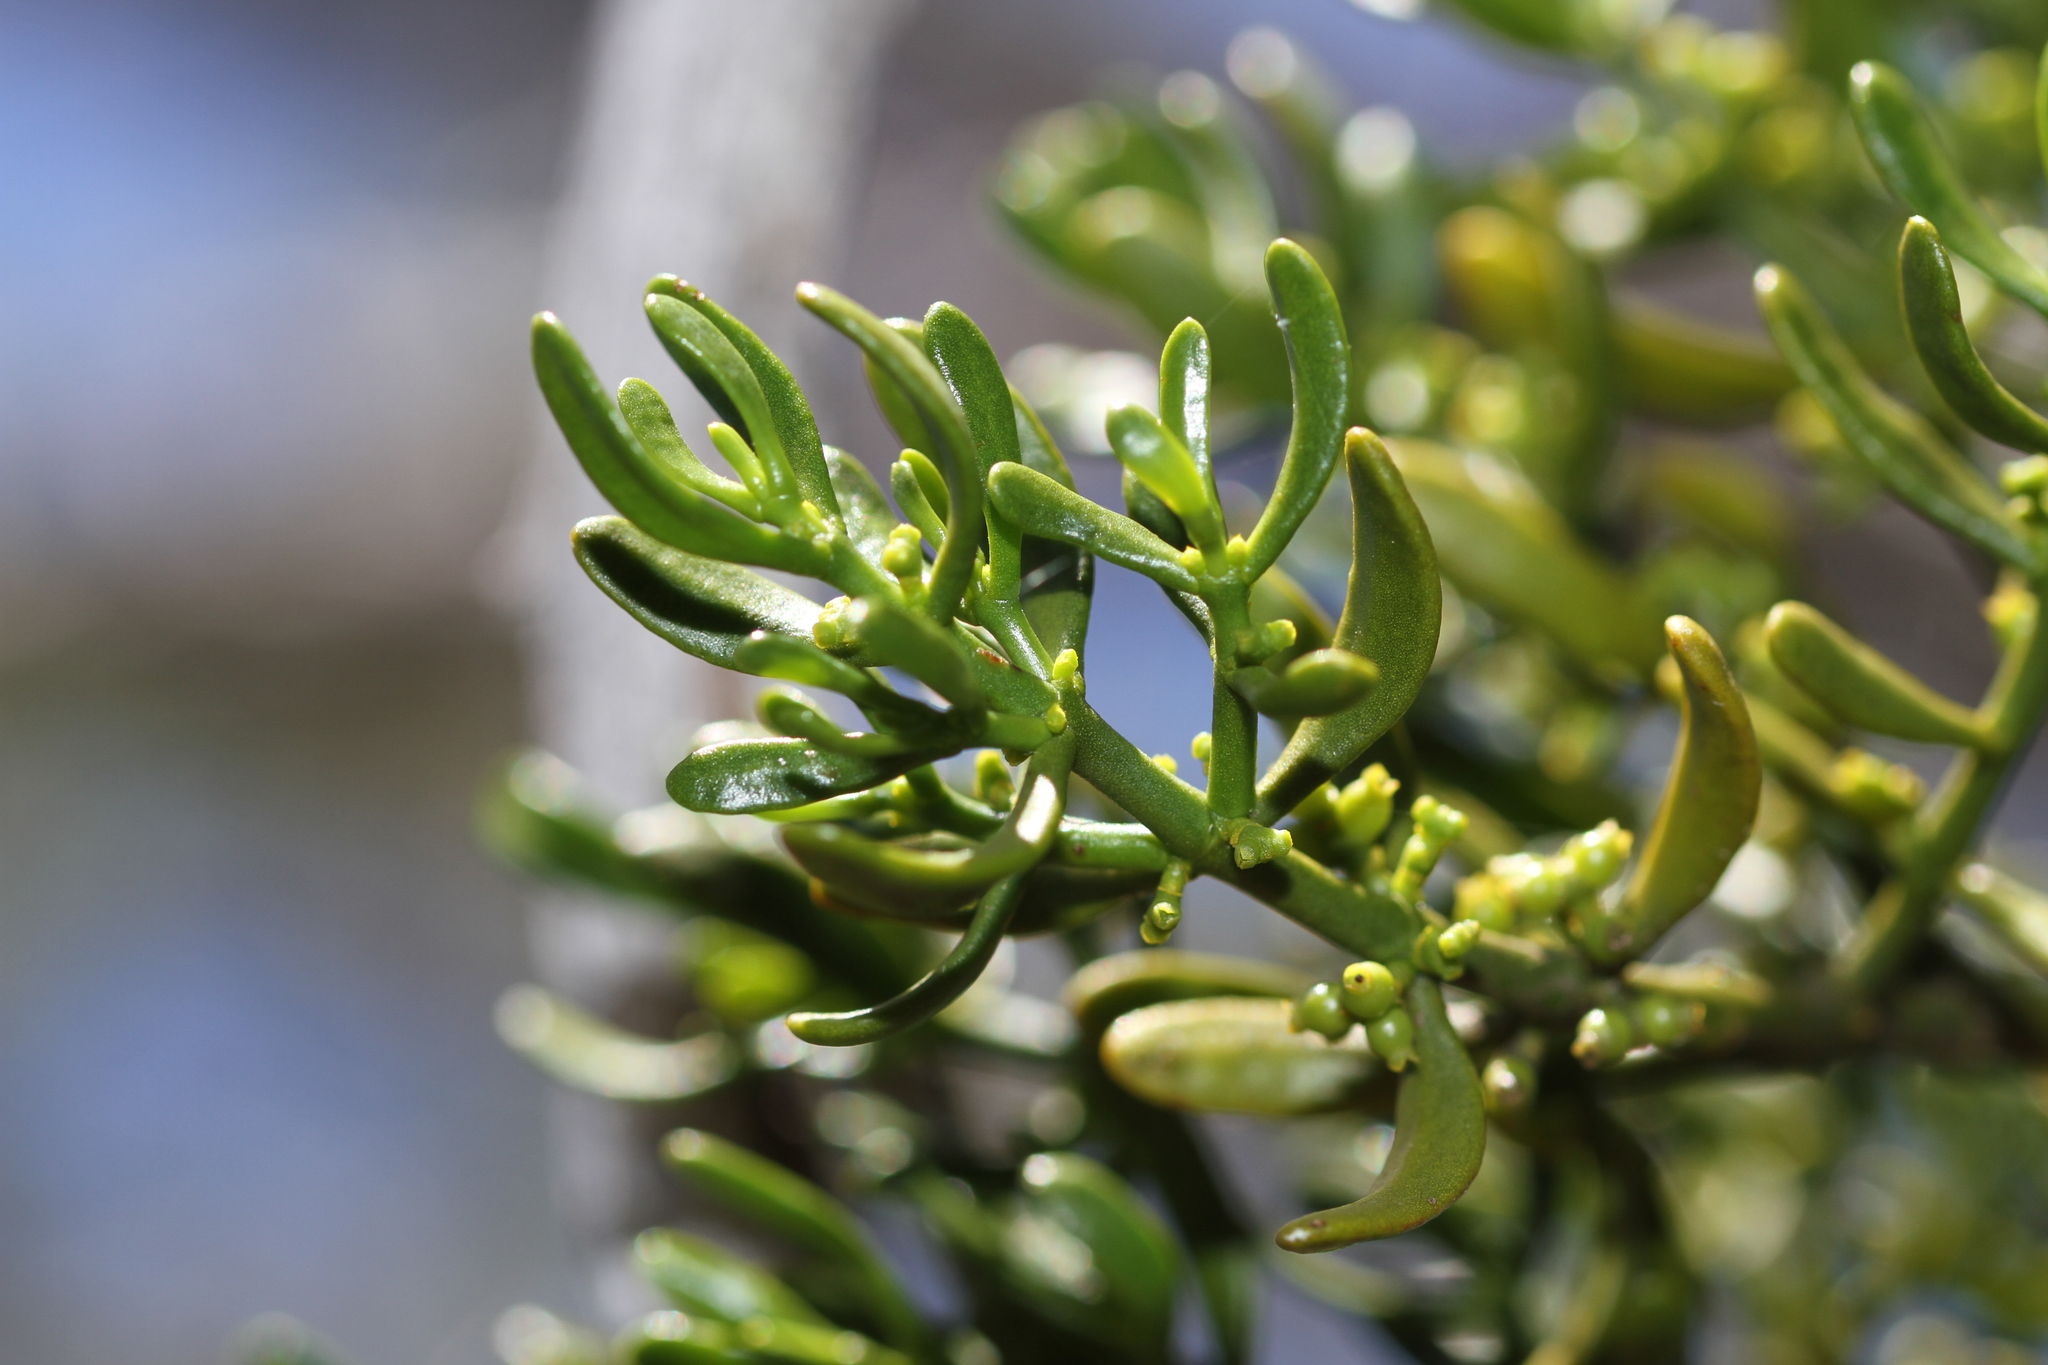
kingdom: Plantae
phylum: Tracheophyta
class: Magnoliopsida
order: Santalales
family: Viscaceae
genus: Phoradendron
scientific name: Phoradendron bolleanum
